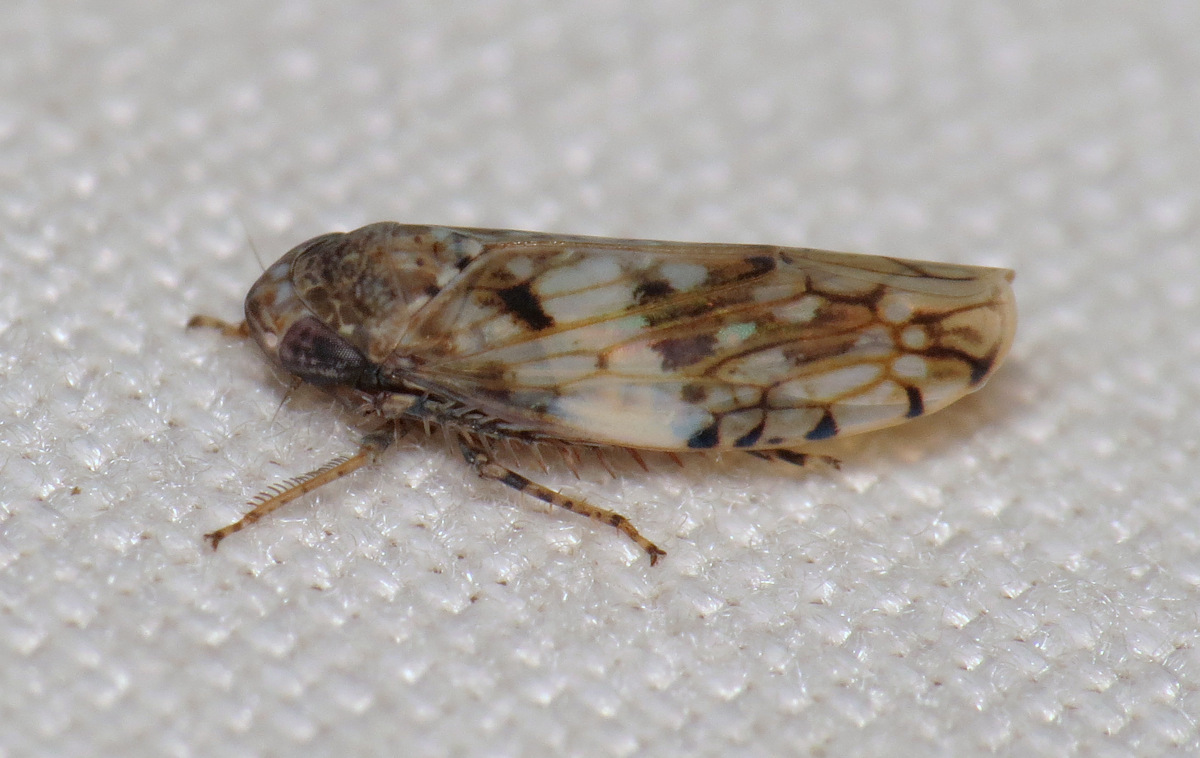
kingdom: Animalia
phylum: Arthropoda
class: Insecta
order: Hemiptera
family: Cicadellidae
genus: Menosoma
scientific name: Menosoma cinctum
